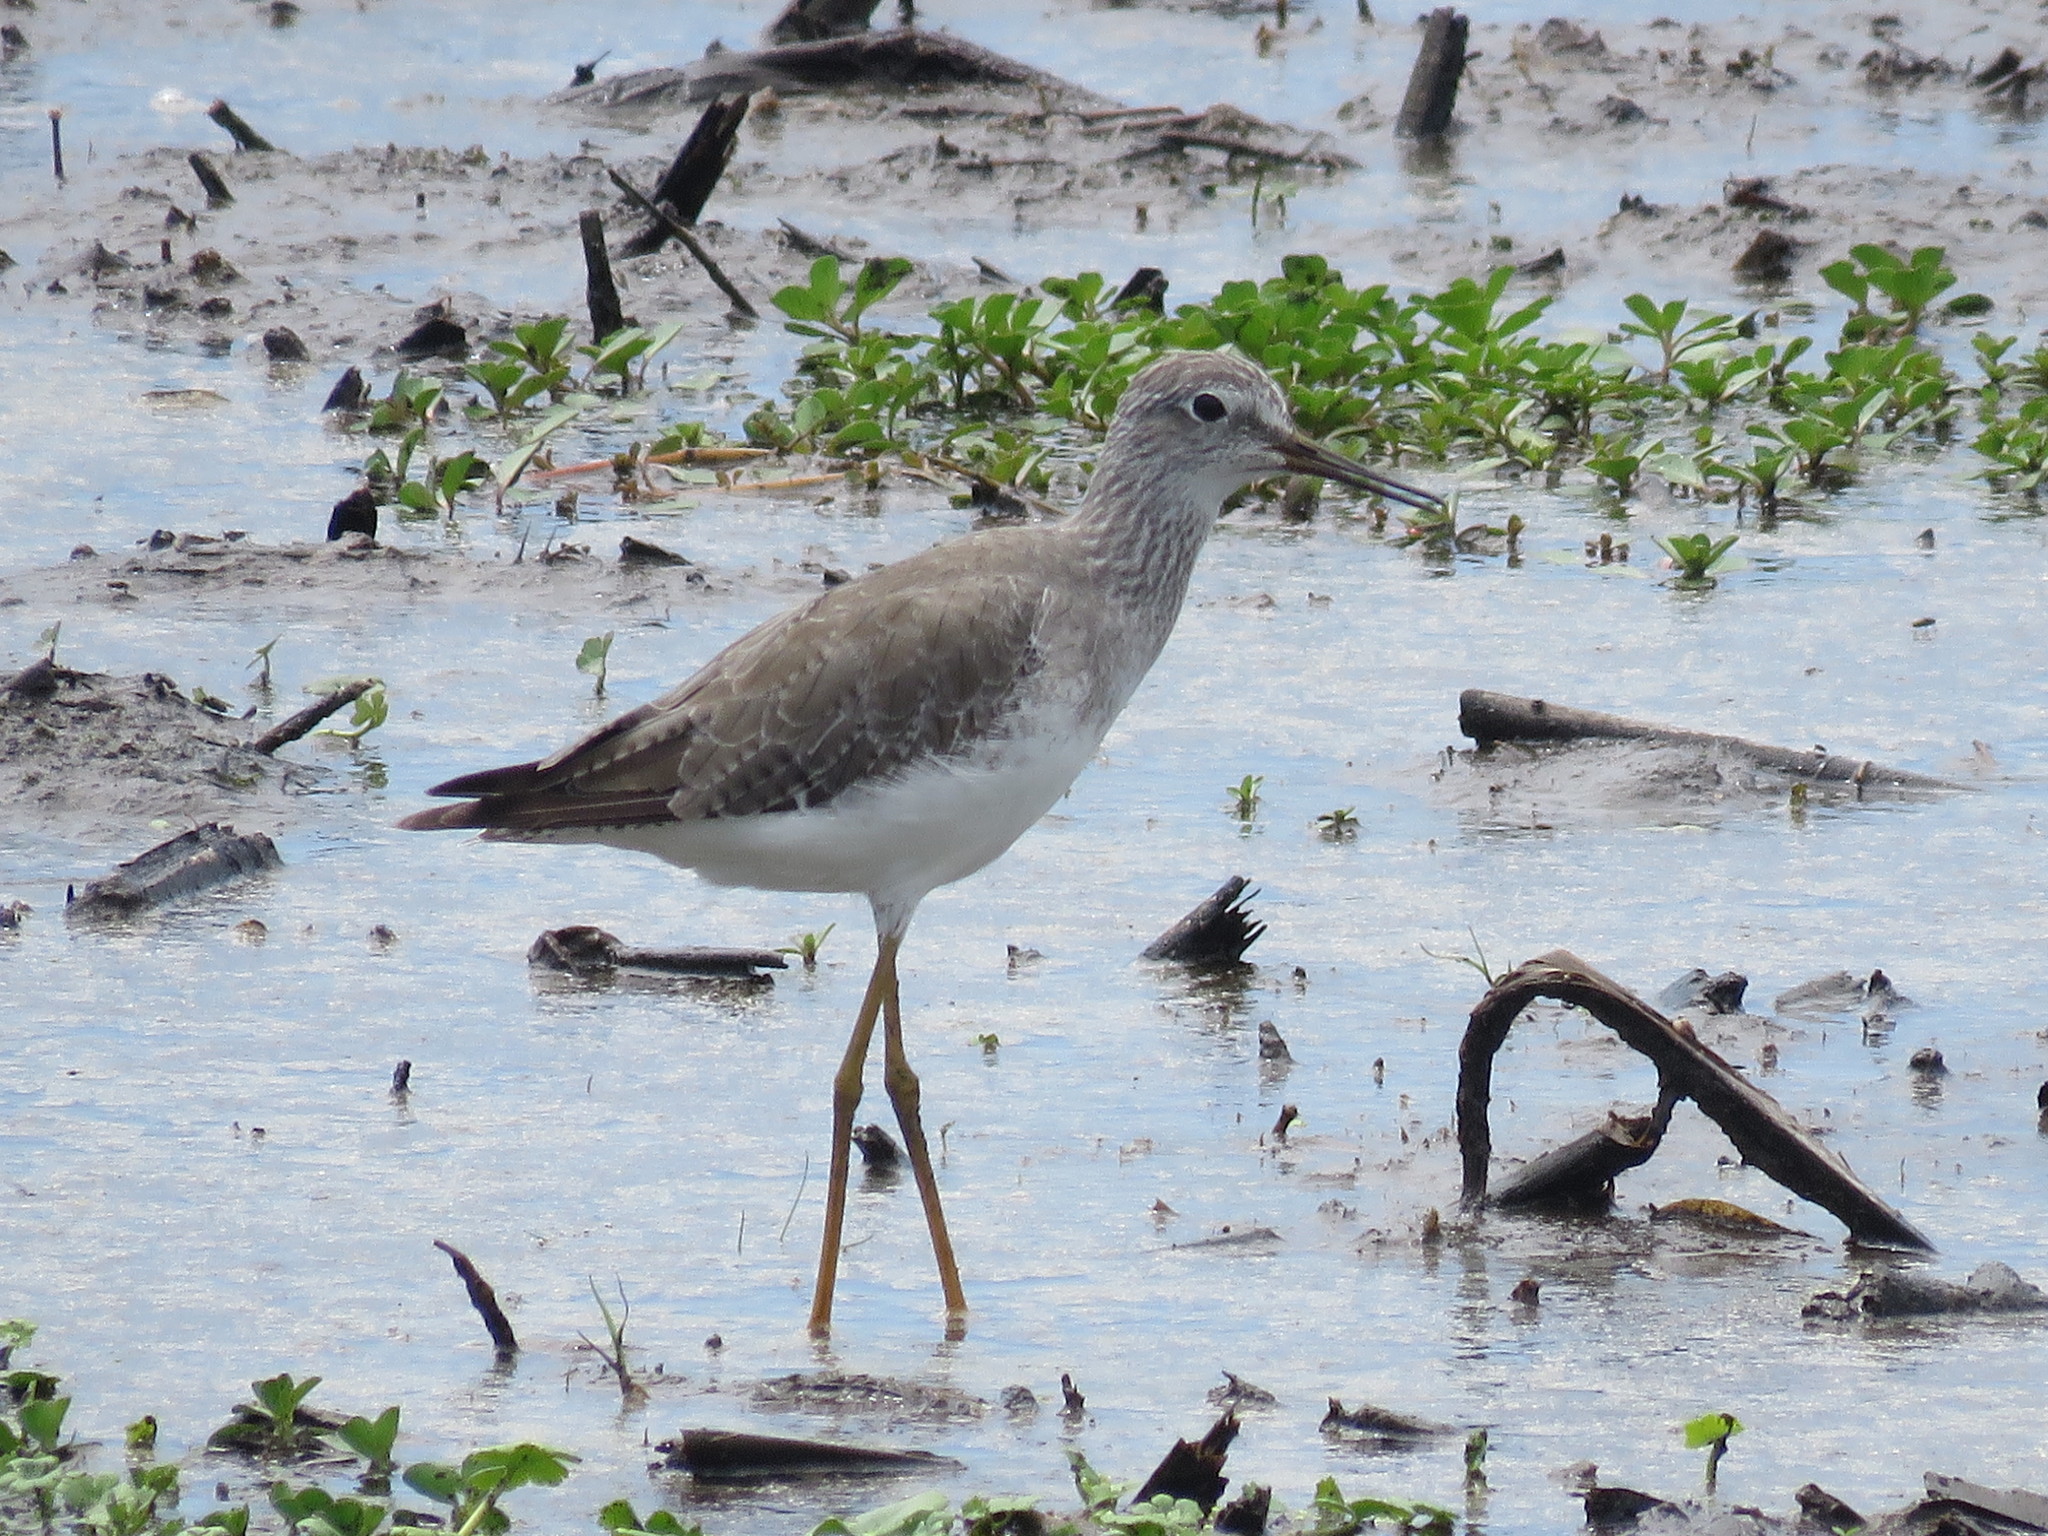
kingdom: Animalia
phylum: Chordata
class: Aves
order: Charadriiformes
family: Scolopacidae
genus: Tringa
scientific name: Tringa flavipes
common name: Lesser yellowlegs
